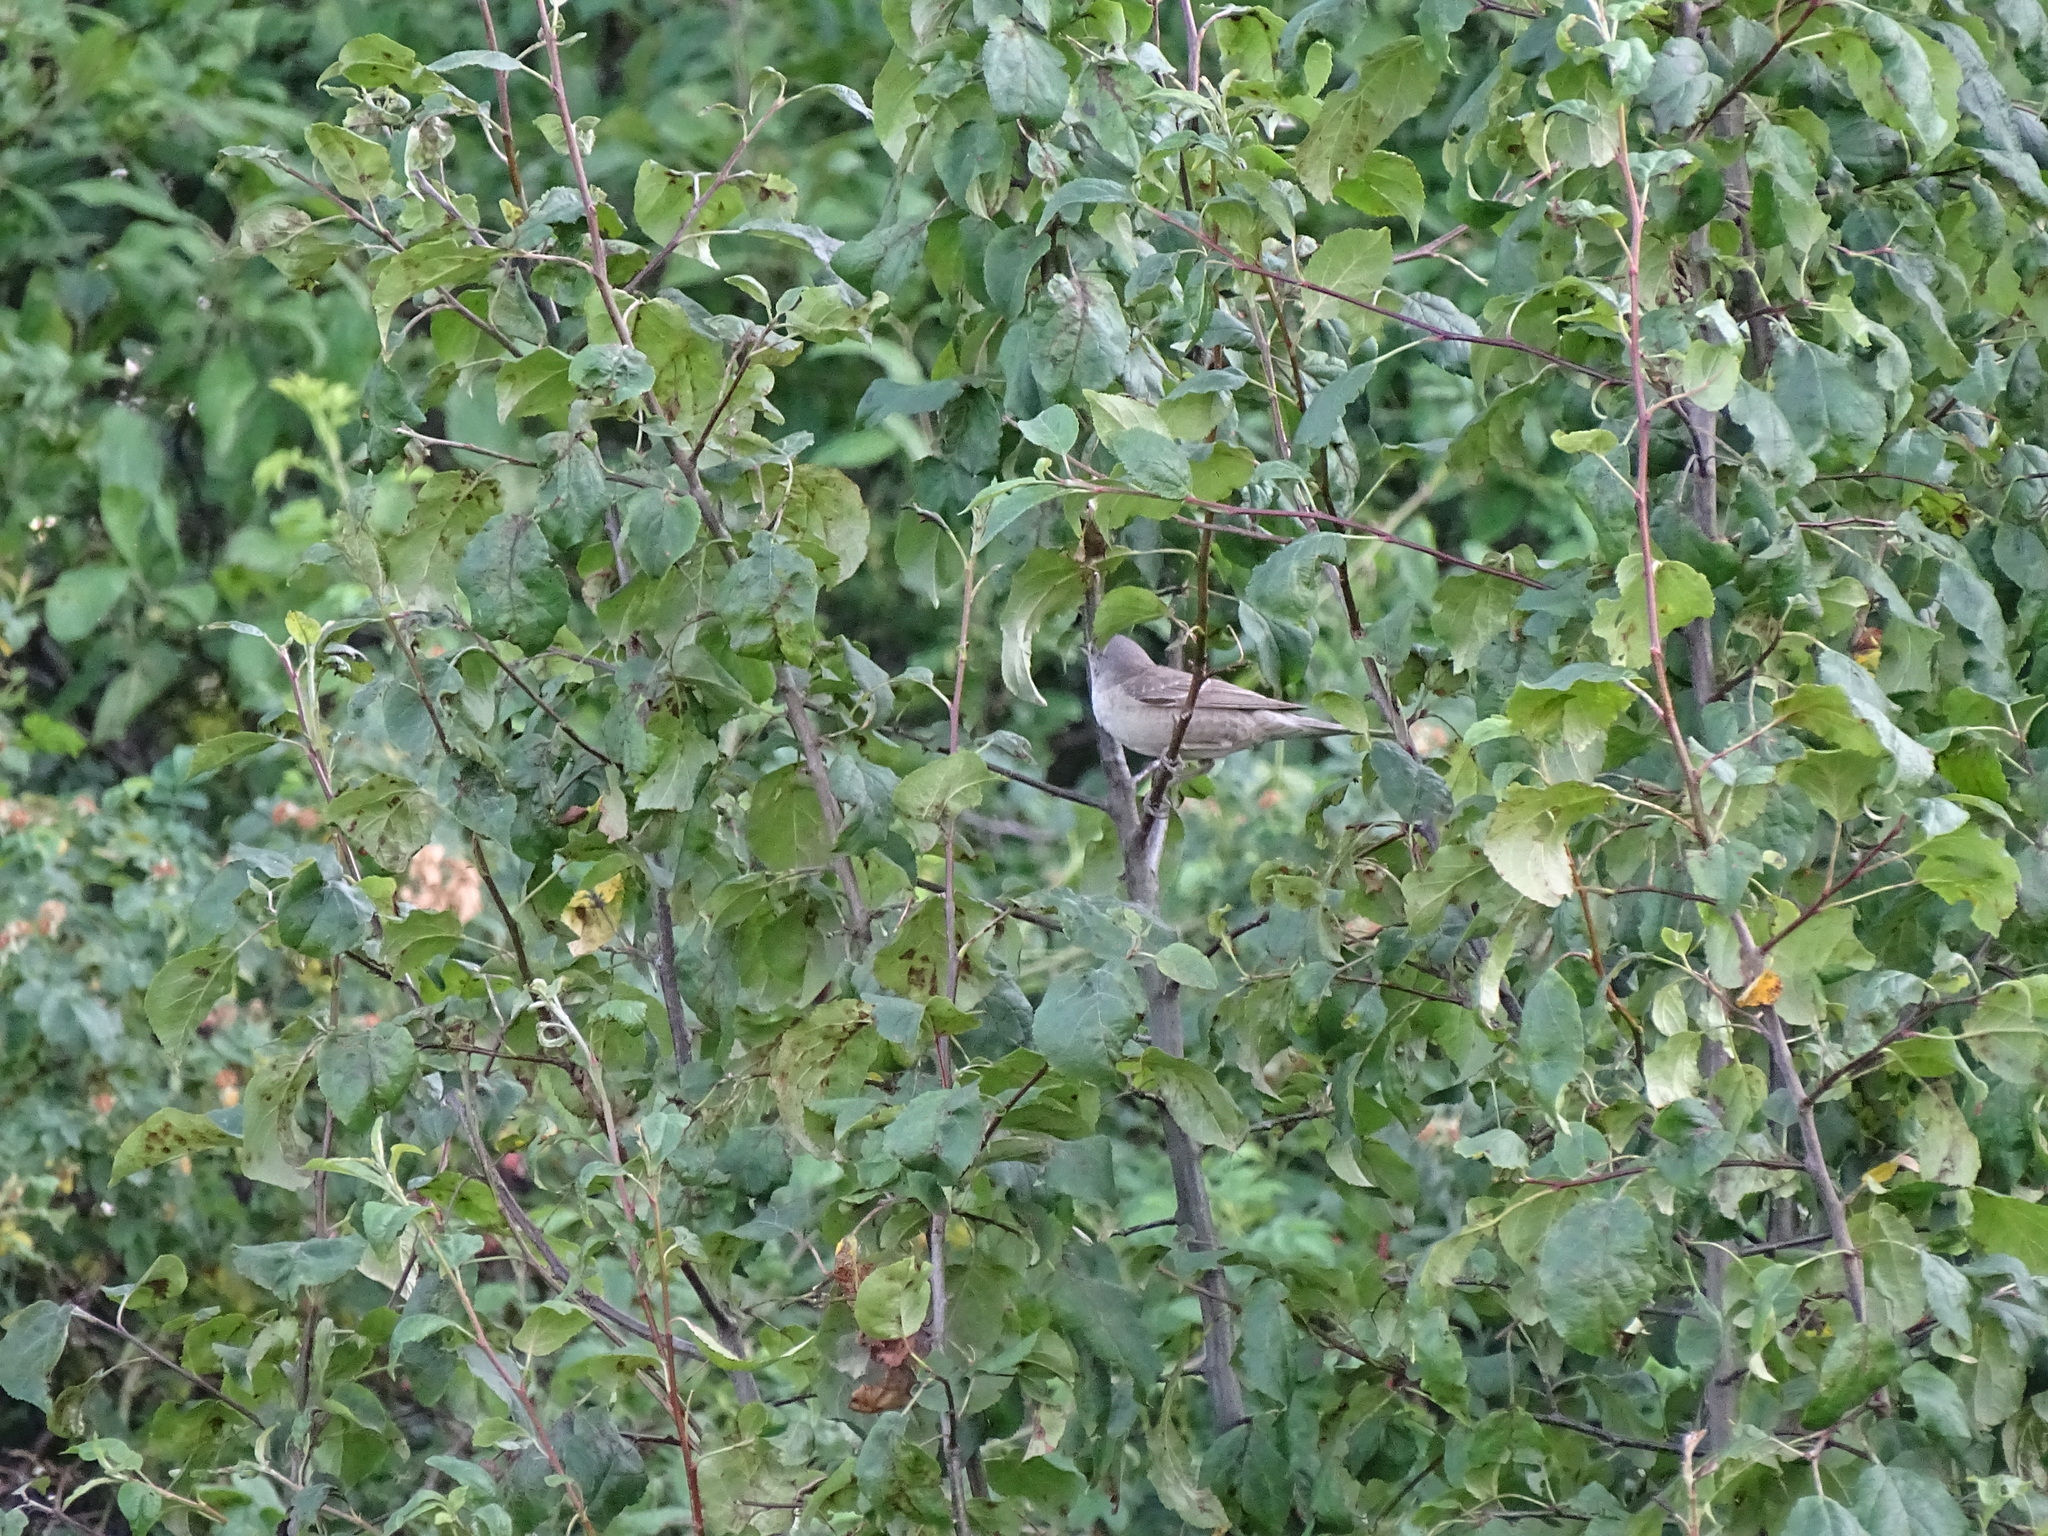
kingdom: Animalia
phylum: Chordata
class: Aves
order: Passeriformes
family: Sylviidae
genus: Sylvia
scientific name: Sylvia nisoria
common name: Barred warbler
